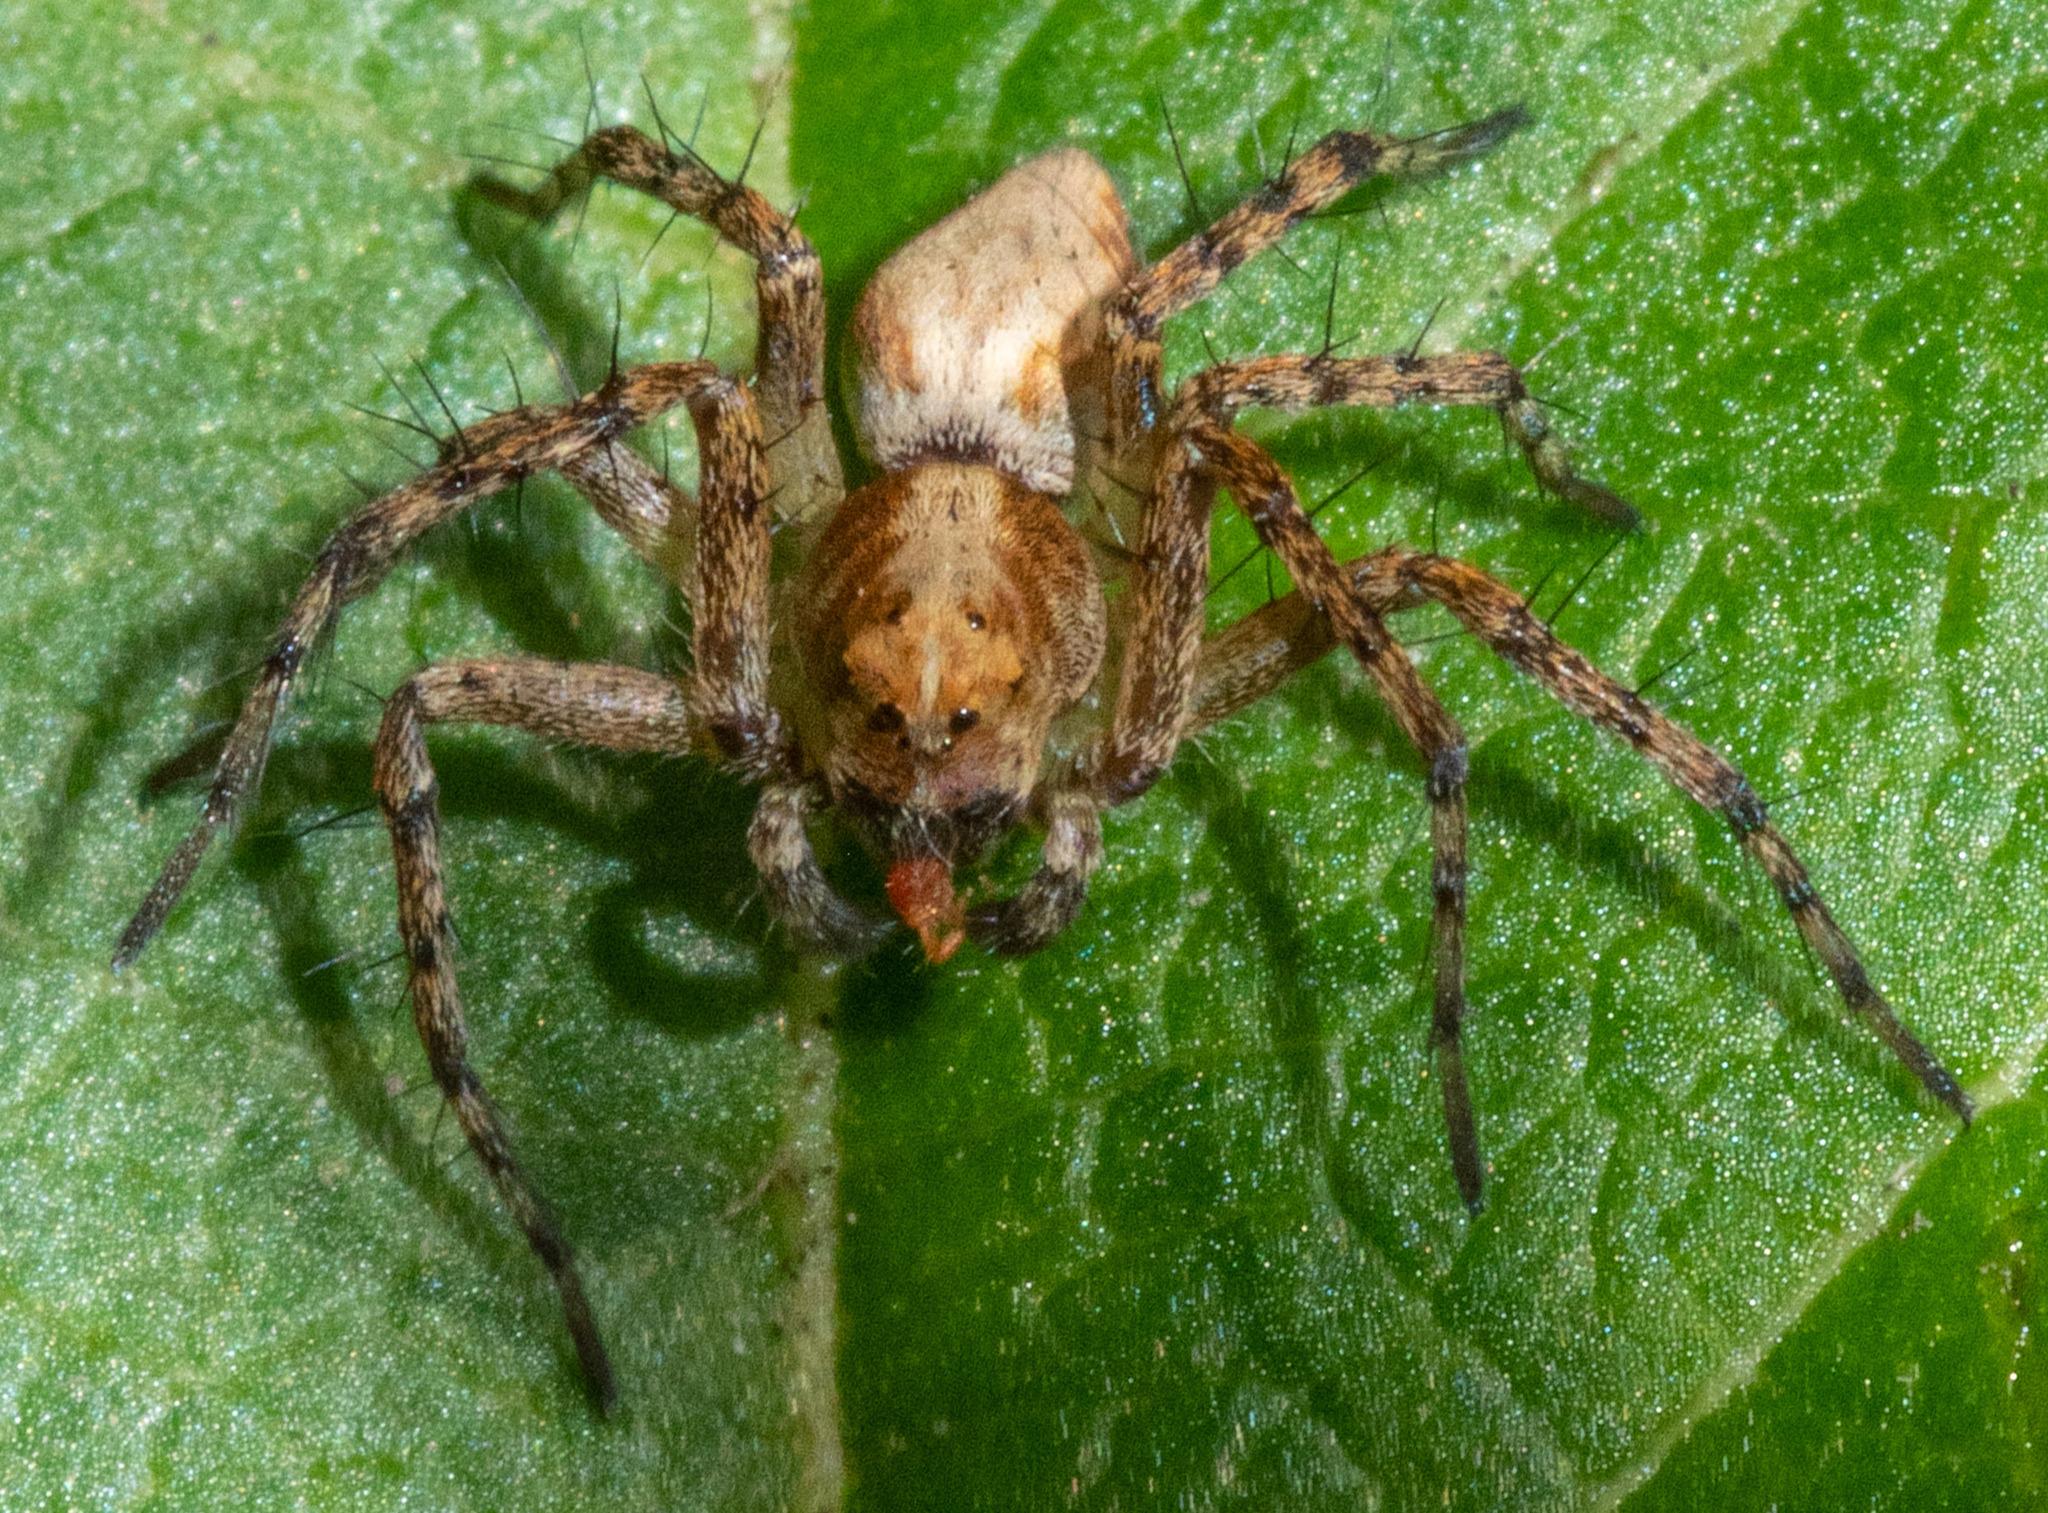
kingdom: Animalia
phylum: Arthropoda
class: Arachnida
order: Araneae
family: Oxyopidae
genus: Oxyopes
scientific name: Oxyopes scalaris
